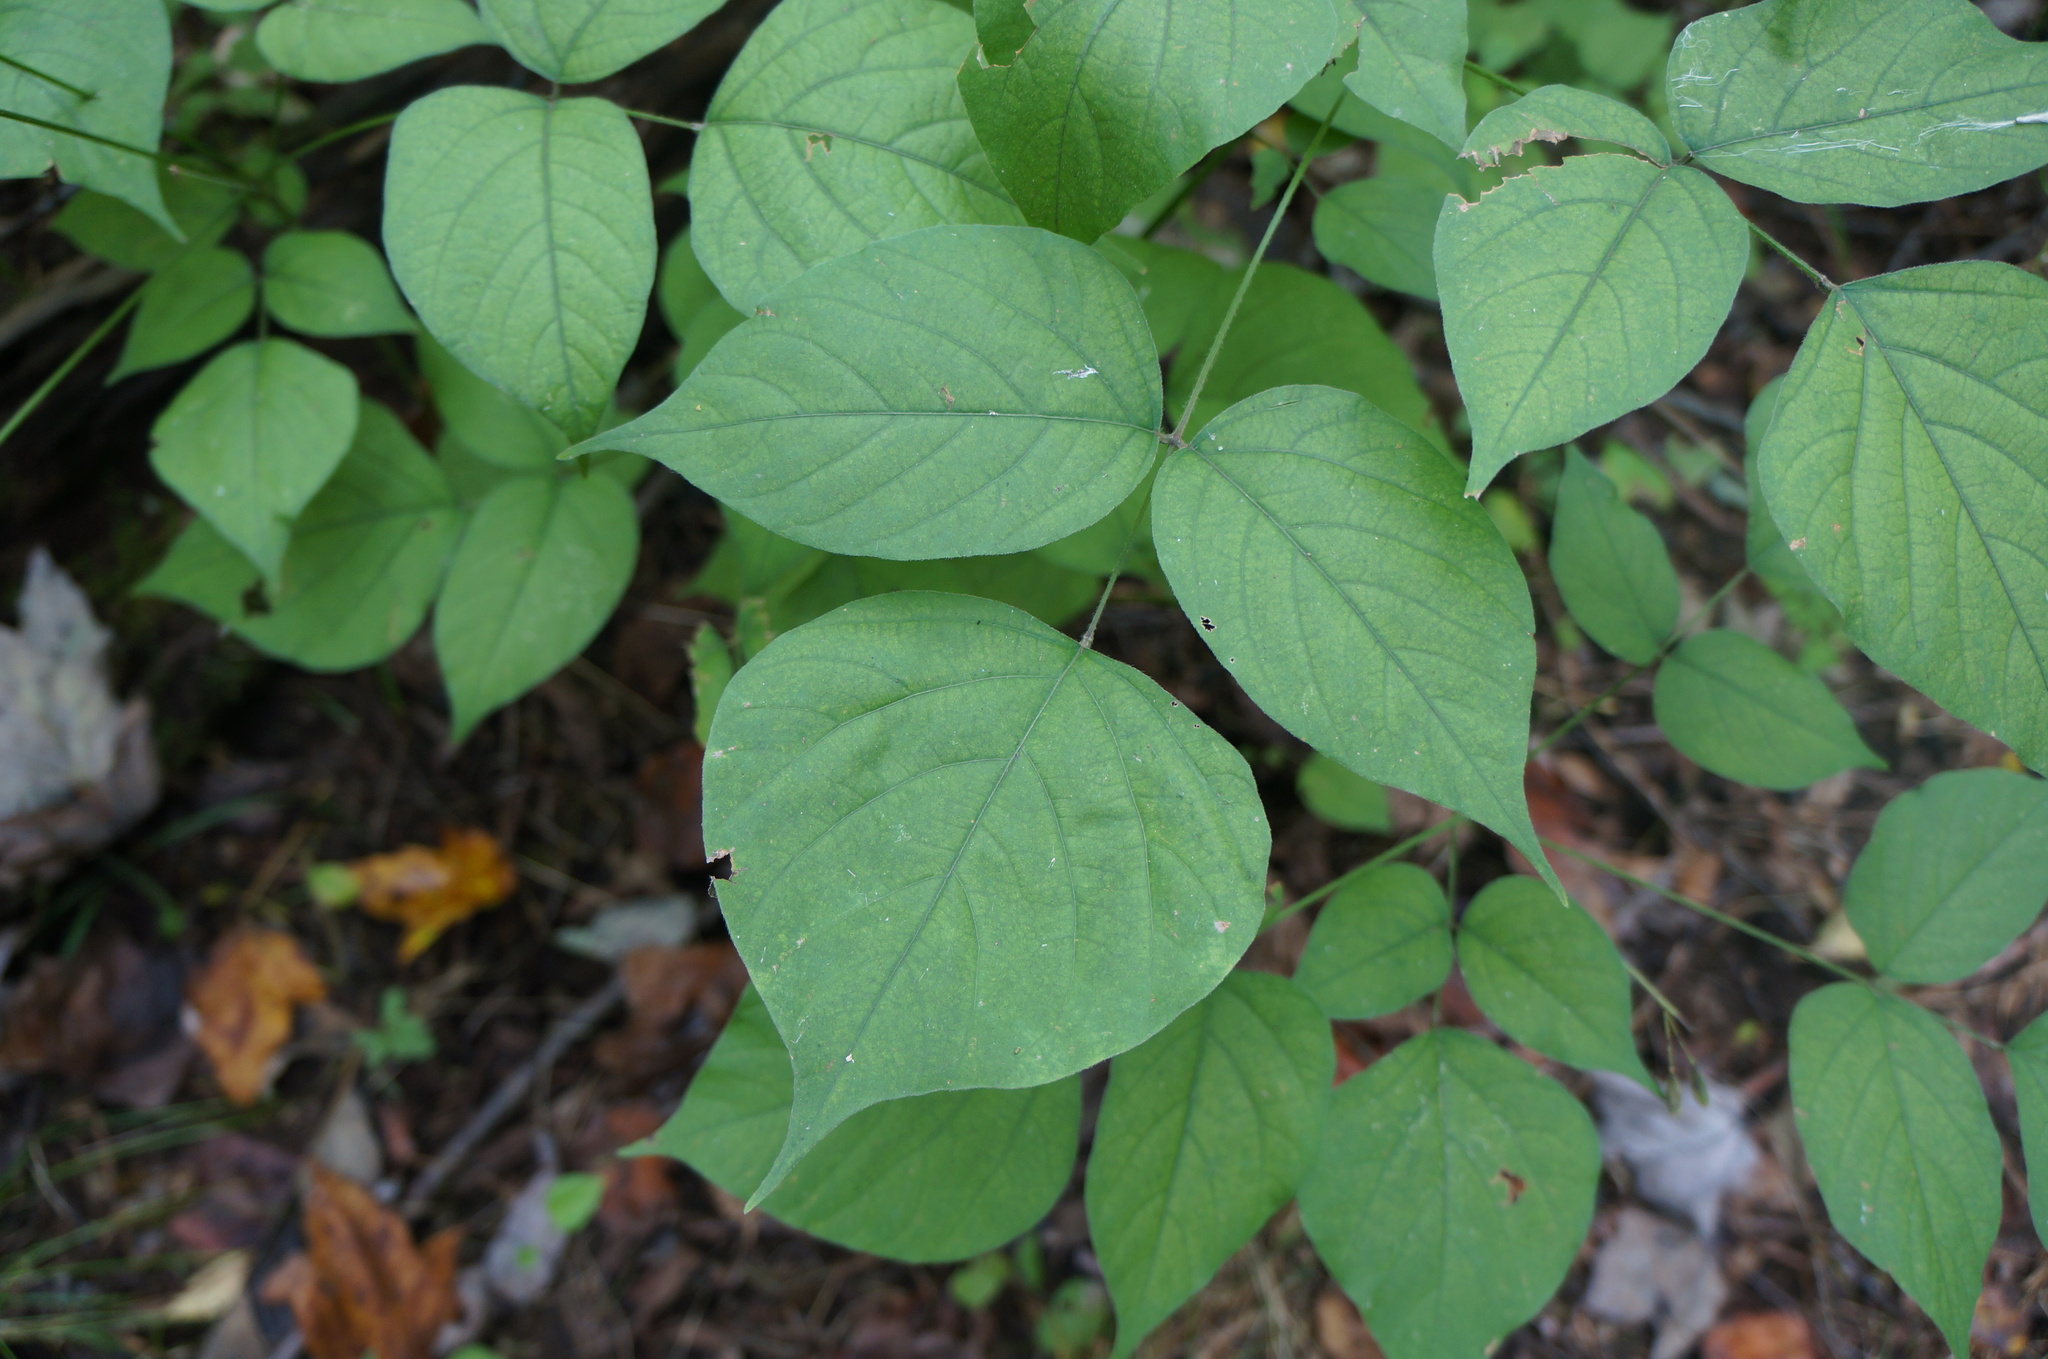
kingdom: Plantae
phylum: Tracheophyta
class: Magnoliopsida
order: Fabales
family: Fabaceae
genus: Hylodesmum
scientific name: Hylodesmum glutinosum
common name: Clustered-leaved tick-trefoil
